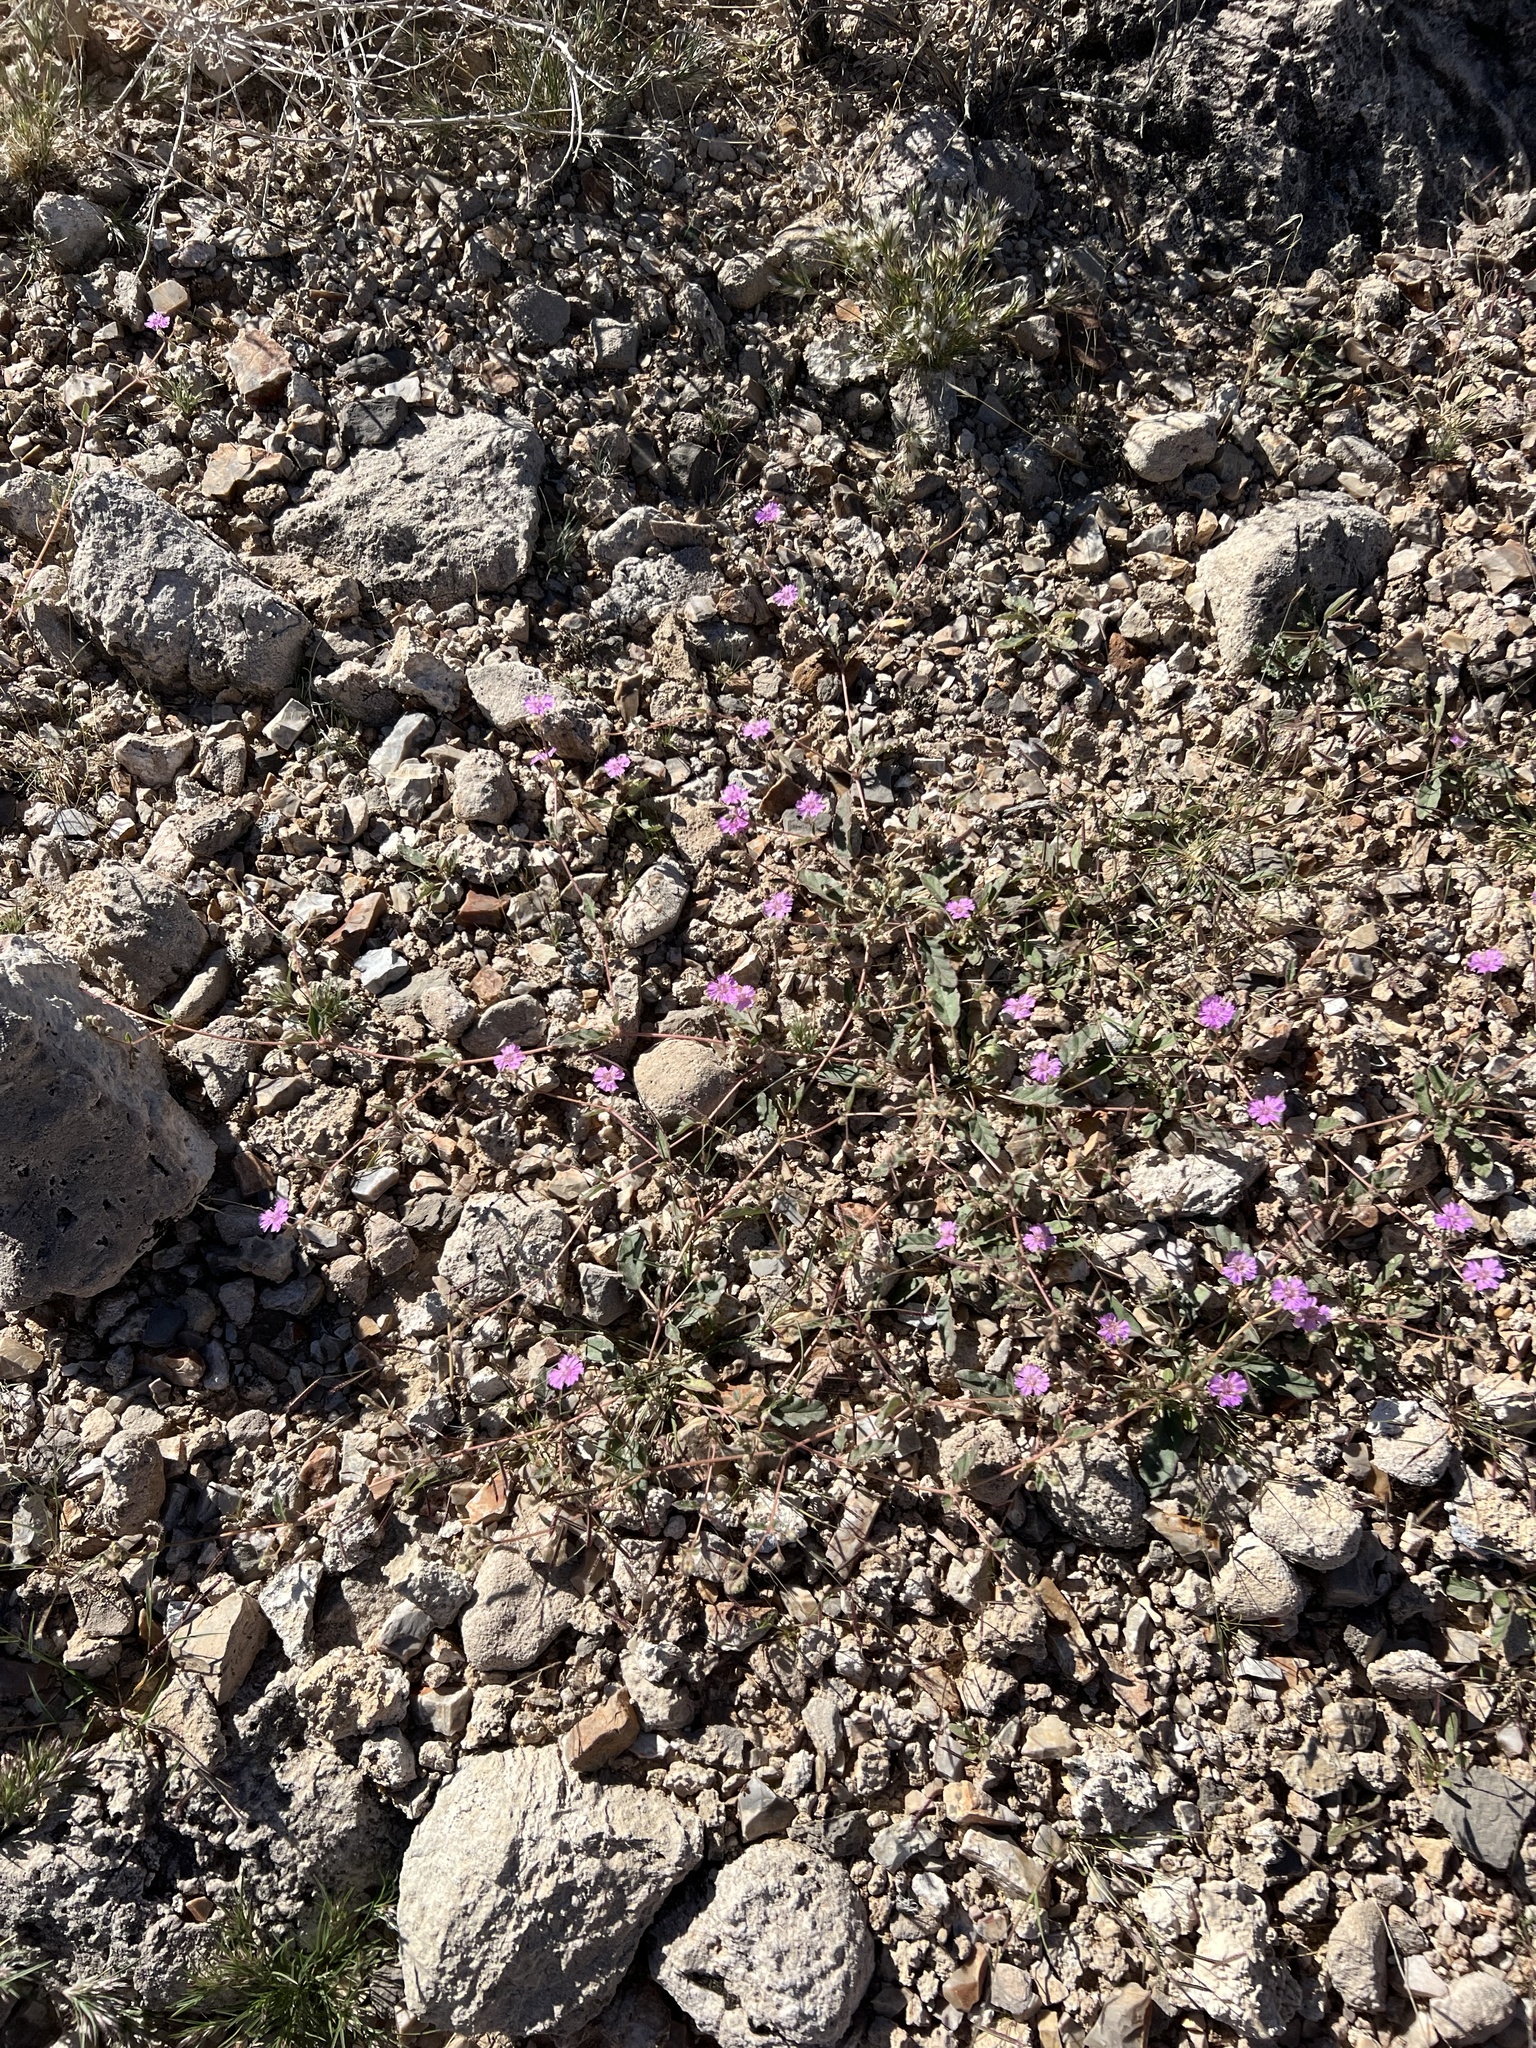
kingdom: Plantae
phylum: Tracheophyta
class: Magnoliopsida
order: Caryophyllales
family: Nyctaginaceae
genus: Allionia
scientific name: Allionia incarnata
